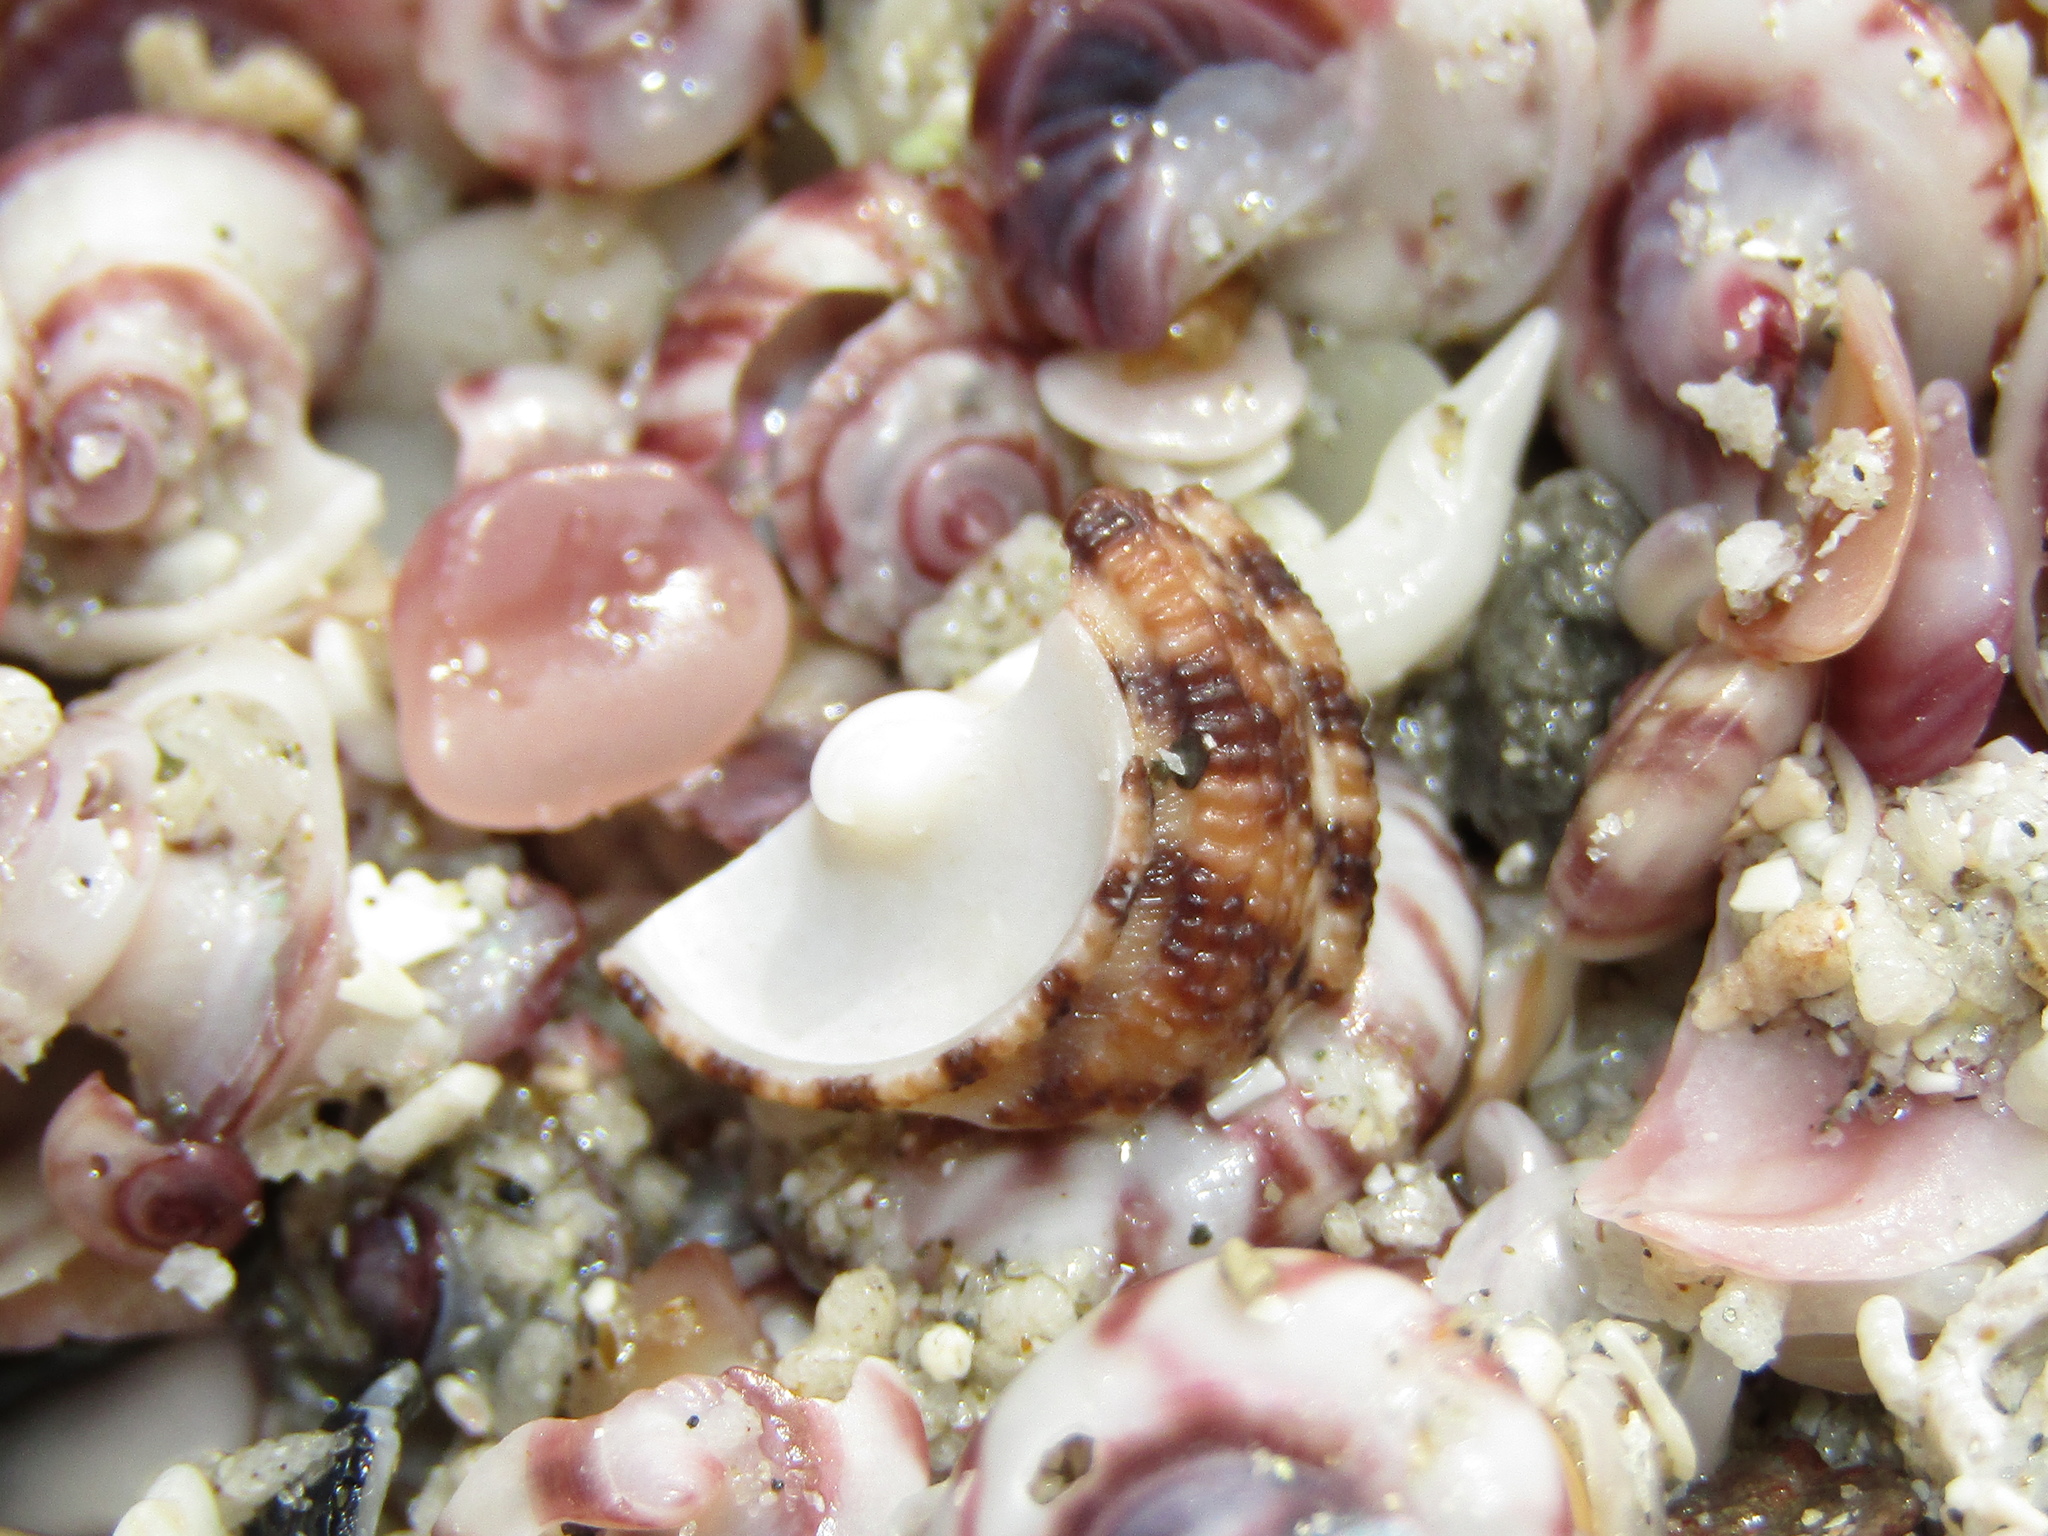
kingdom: Animalia
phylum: Mollusca
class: Gastropoda
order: Trochida
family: Trochidae
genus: Clanculus
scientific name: Clanculus peccatus
